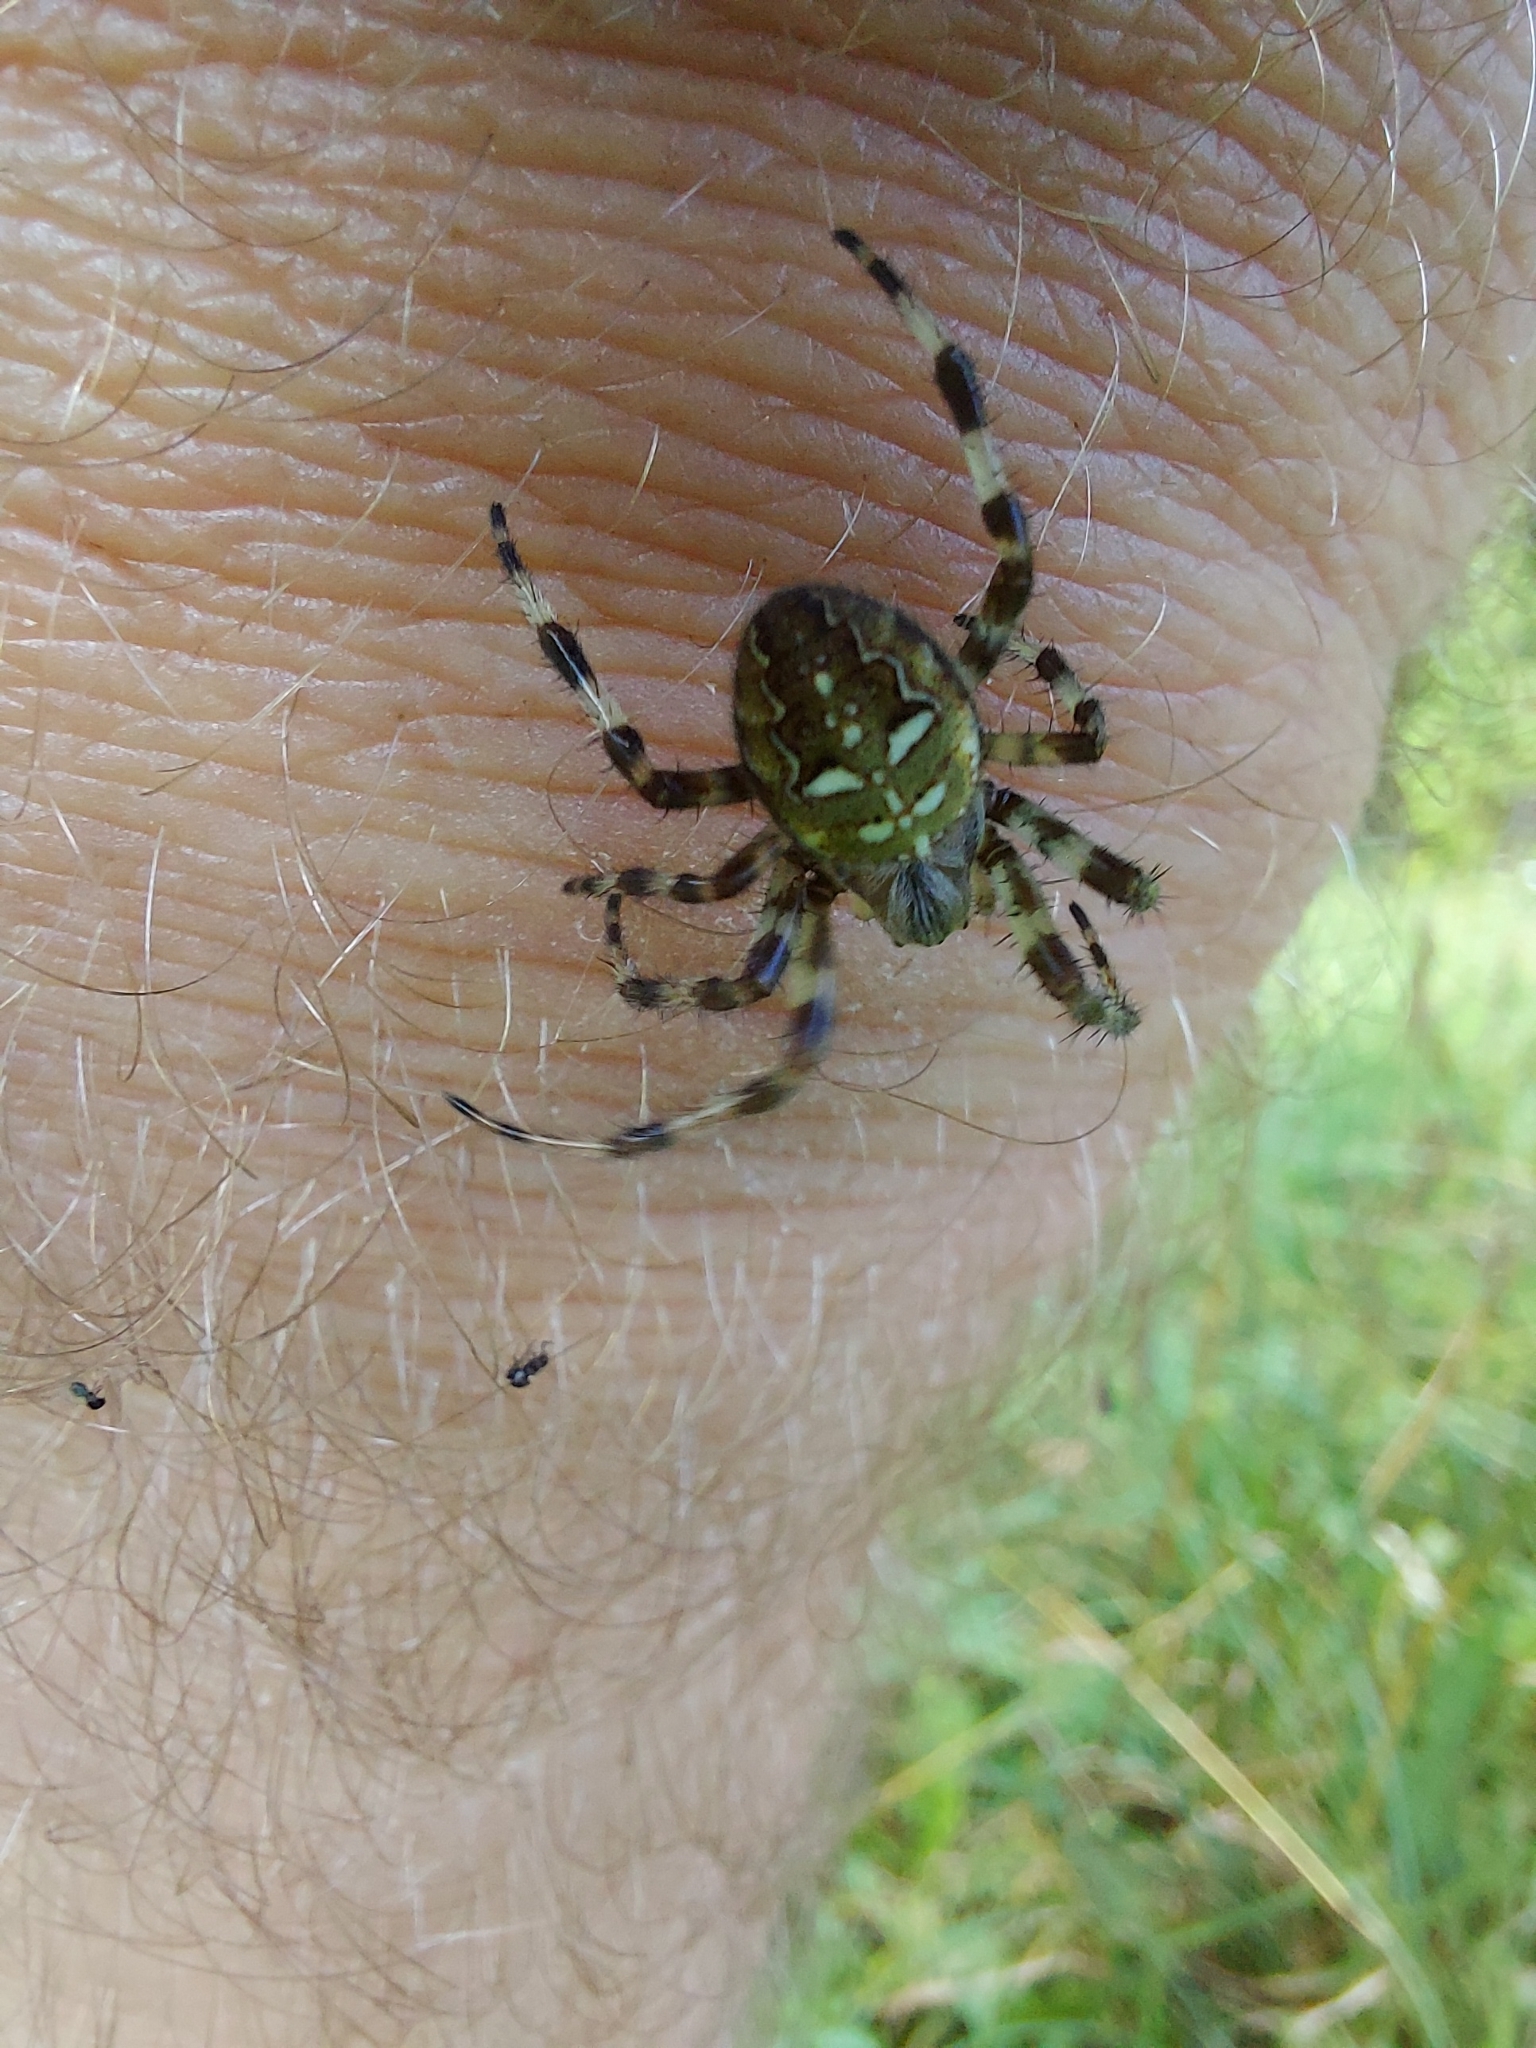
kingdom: Animalia
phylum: Arthropoda
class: Arachnida
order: Araneae
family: Araneidae
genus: Araneus
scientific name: Araneus quadratus
